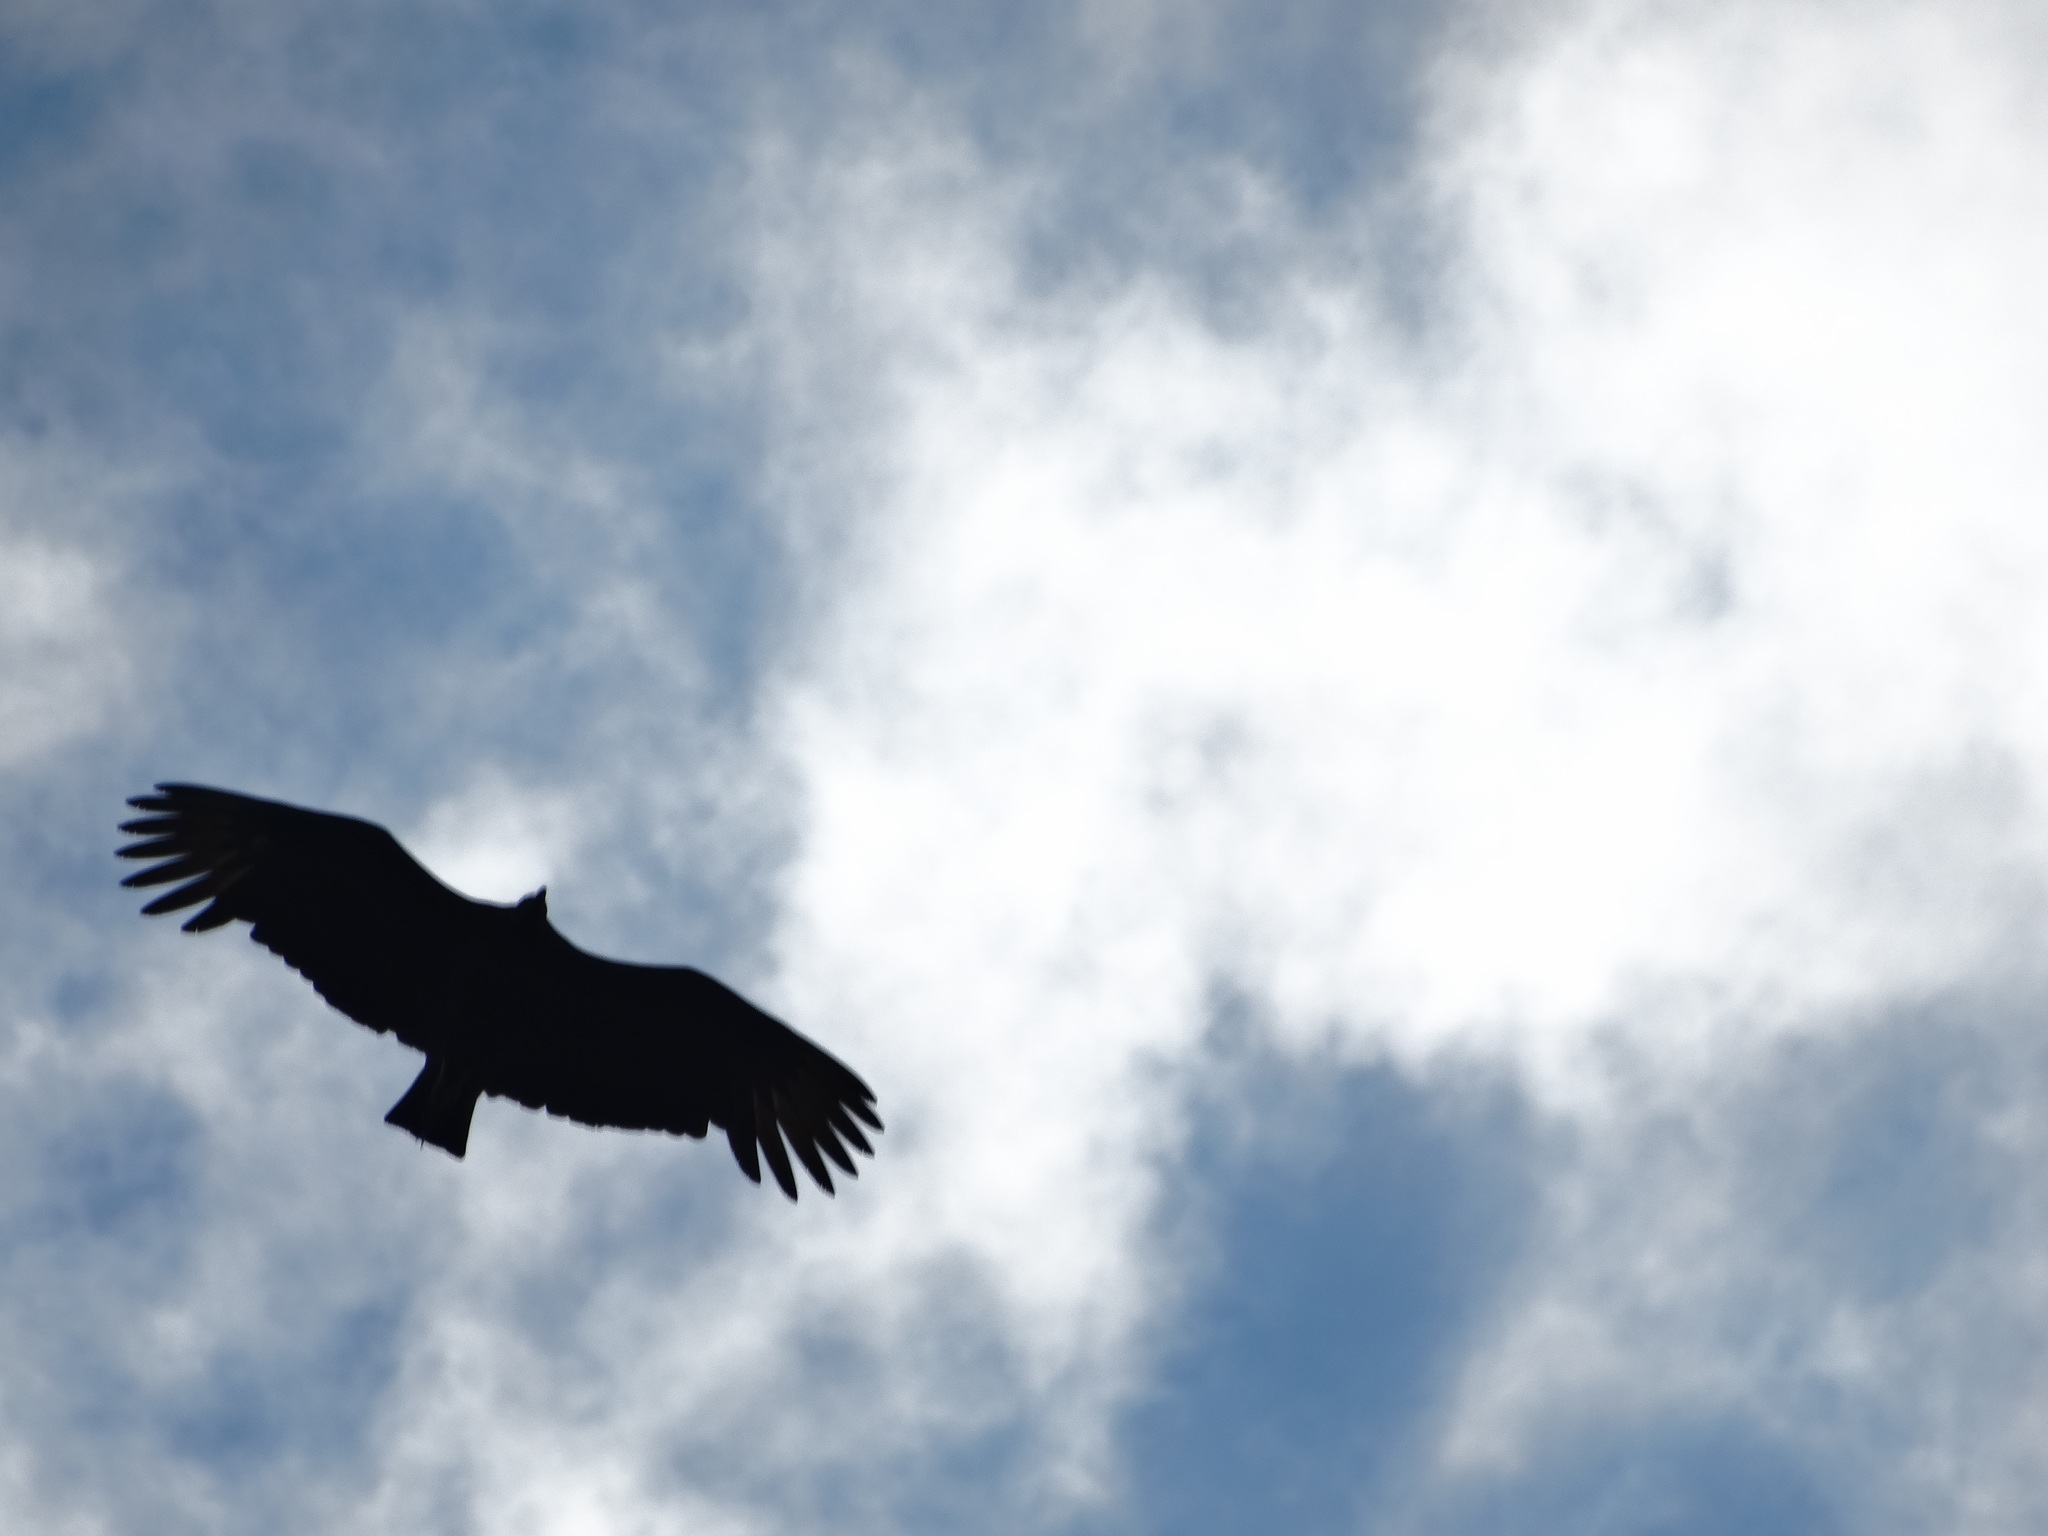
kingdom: Animalia
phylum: Chordata
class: Aves
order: Accipitriformes
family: Cathartidae
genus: Coragyps
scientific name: Coragyps atratus
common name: Black vulture
